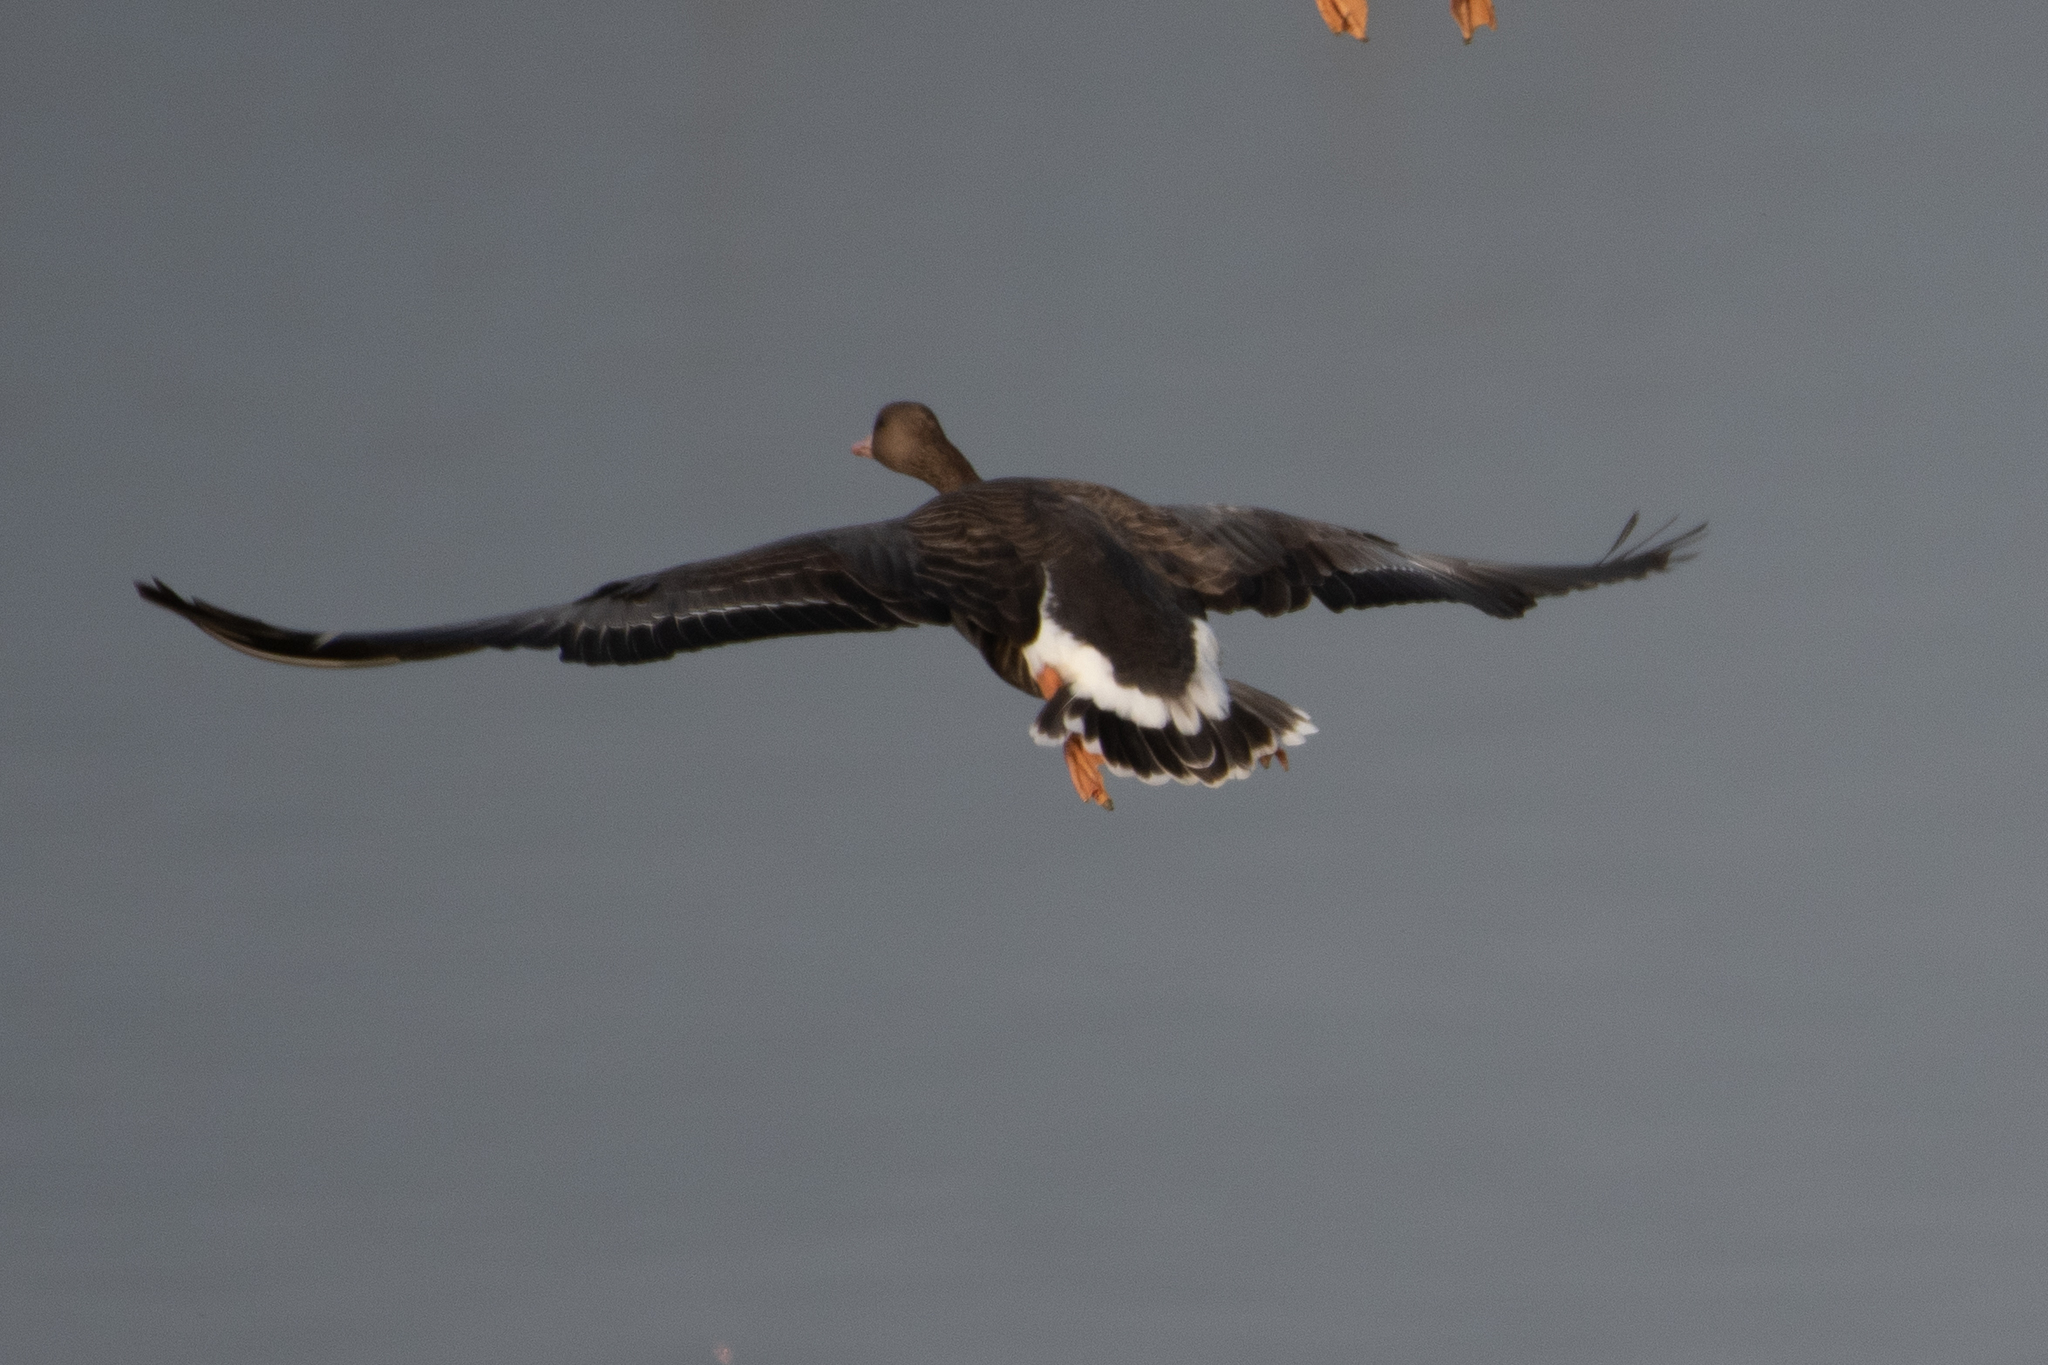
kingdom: Animalia
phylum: Chordata
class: Aves
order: Anseriformes
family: Anatidae
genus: Anser
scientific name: Anser albifrons
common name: Greater white-fronted goose
